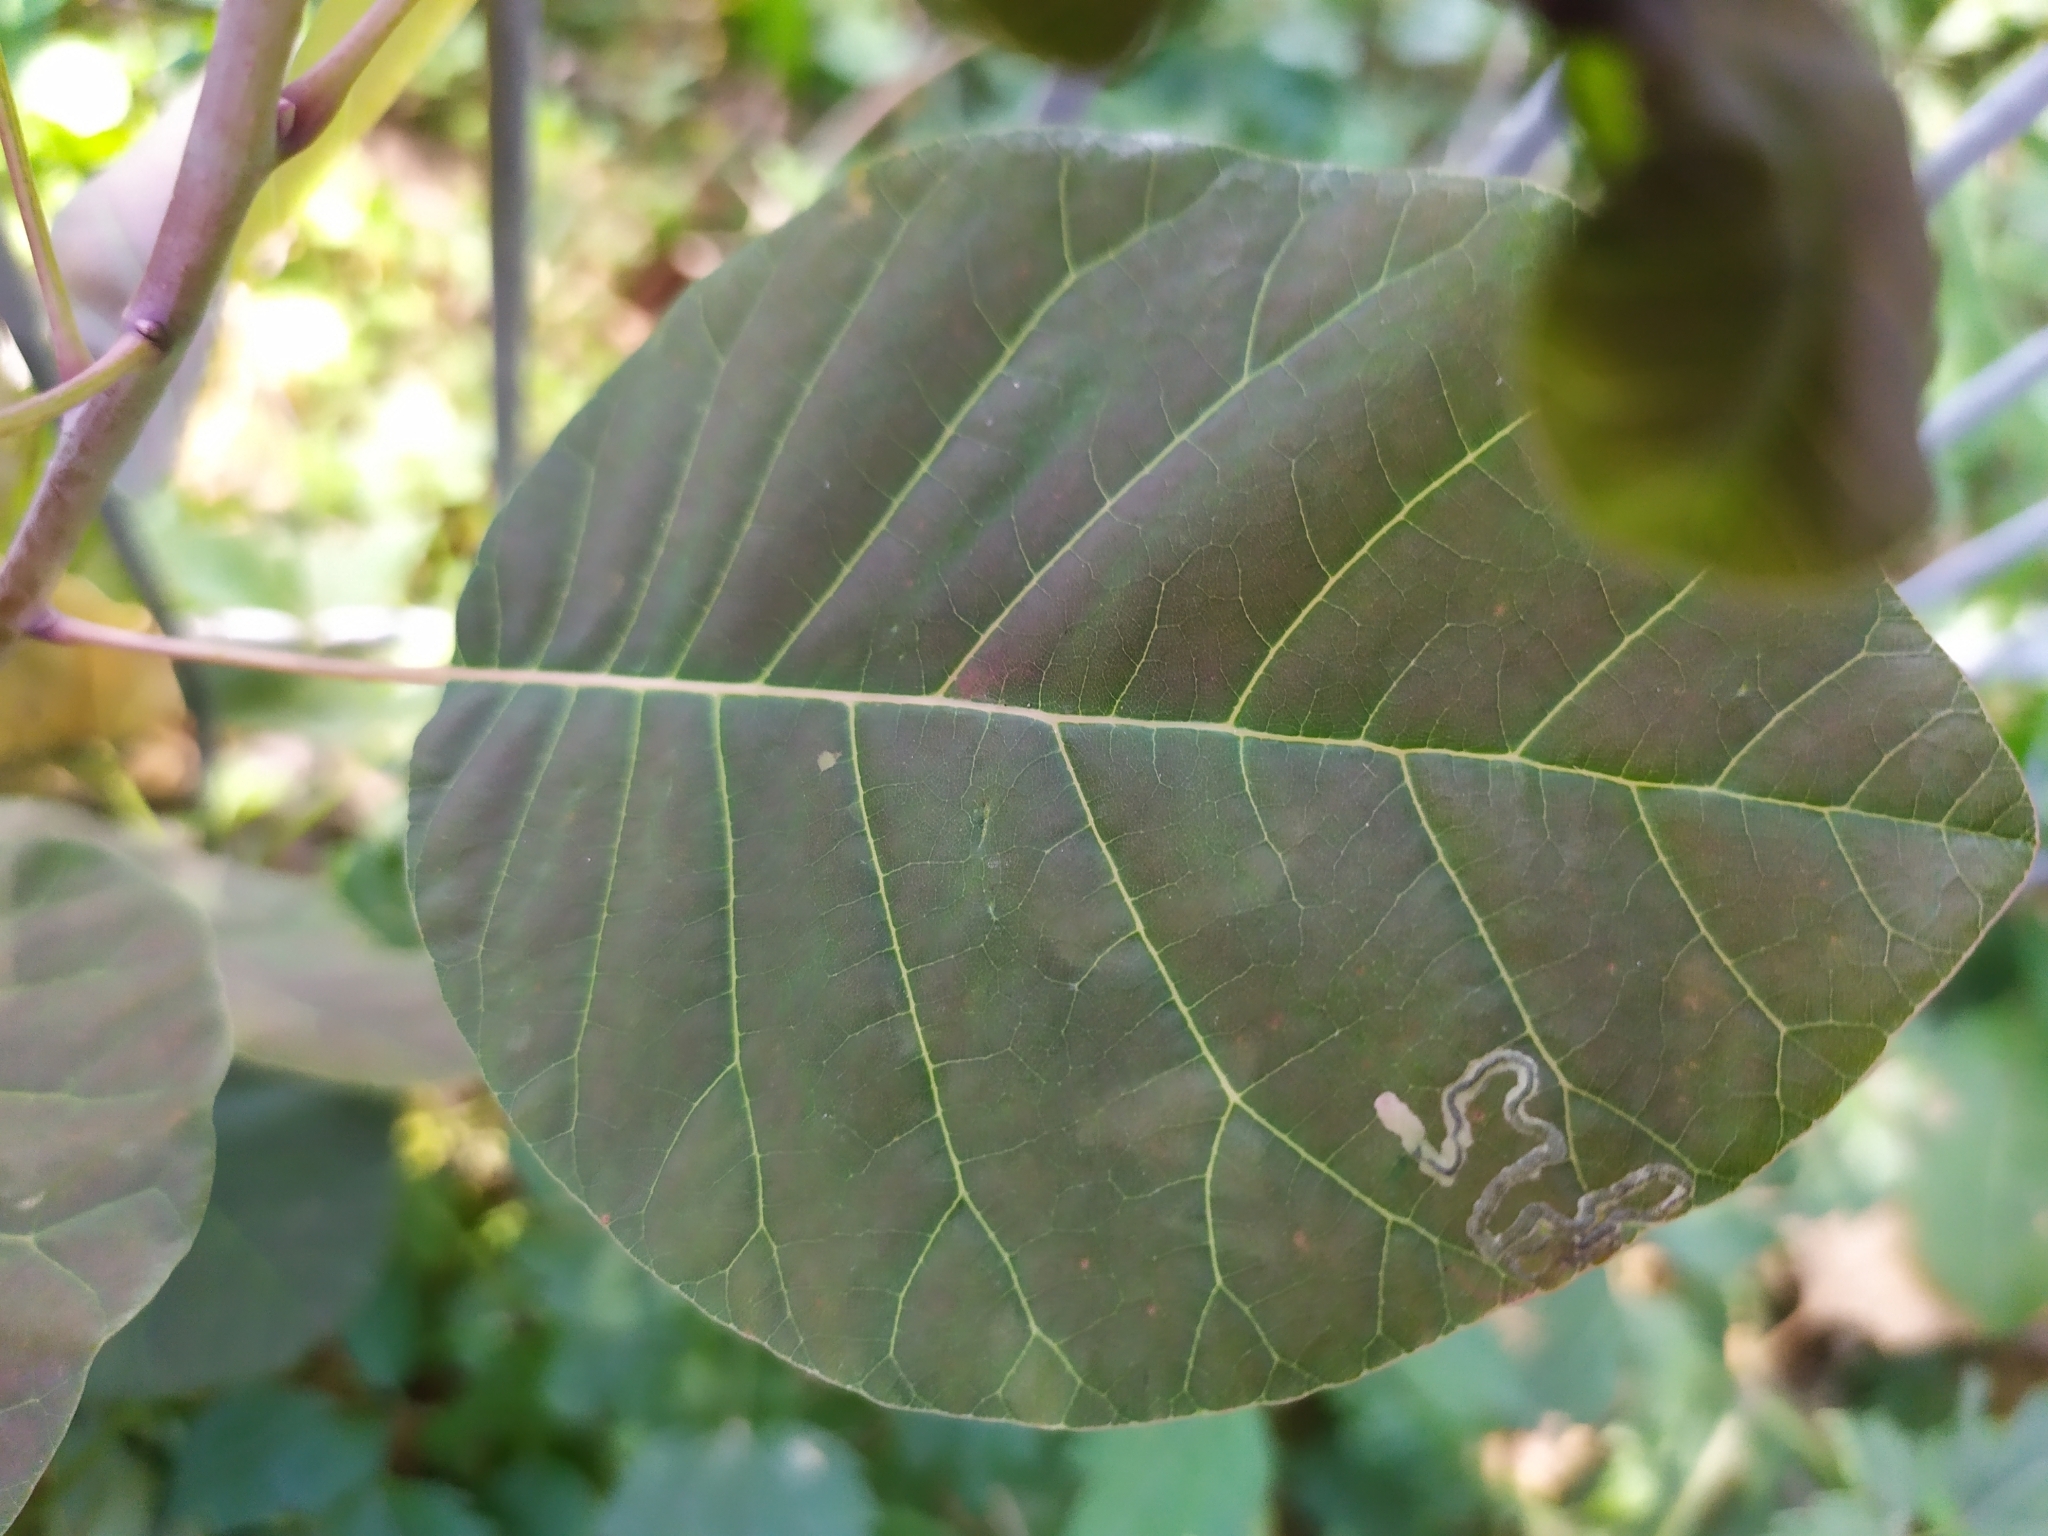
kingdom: Animalia
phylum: Arthropoda
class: Insecta
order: Lepidoptera
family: Nepticulidae
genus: Simplimorpha
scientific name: Simplimorpha promissa
